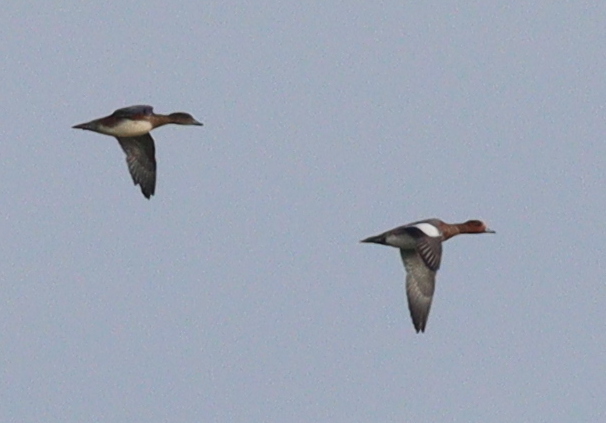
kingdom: Animalia
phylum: Chordata
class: Aves
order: Anseriformes
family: Anatidae
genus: Mareca
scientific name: Mareca penelope
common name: Eurasian wigeon
